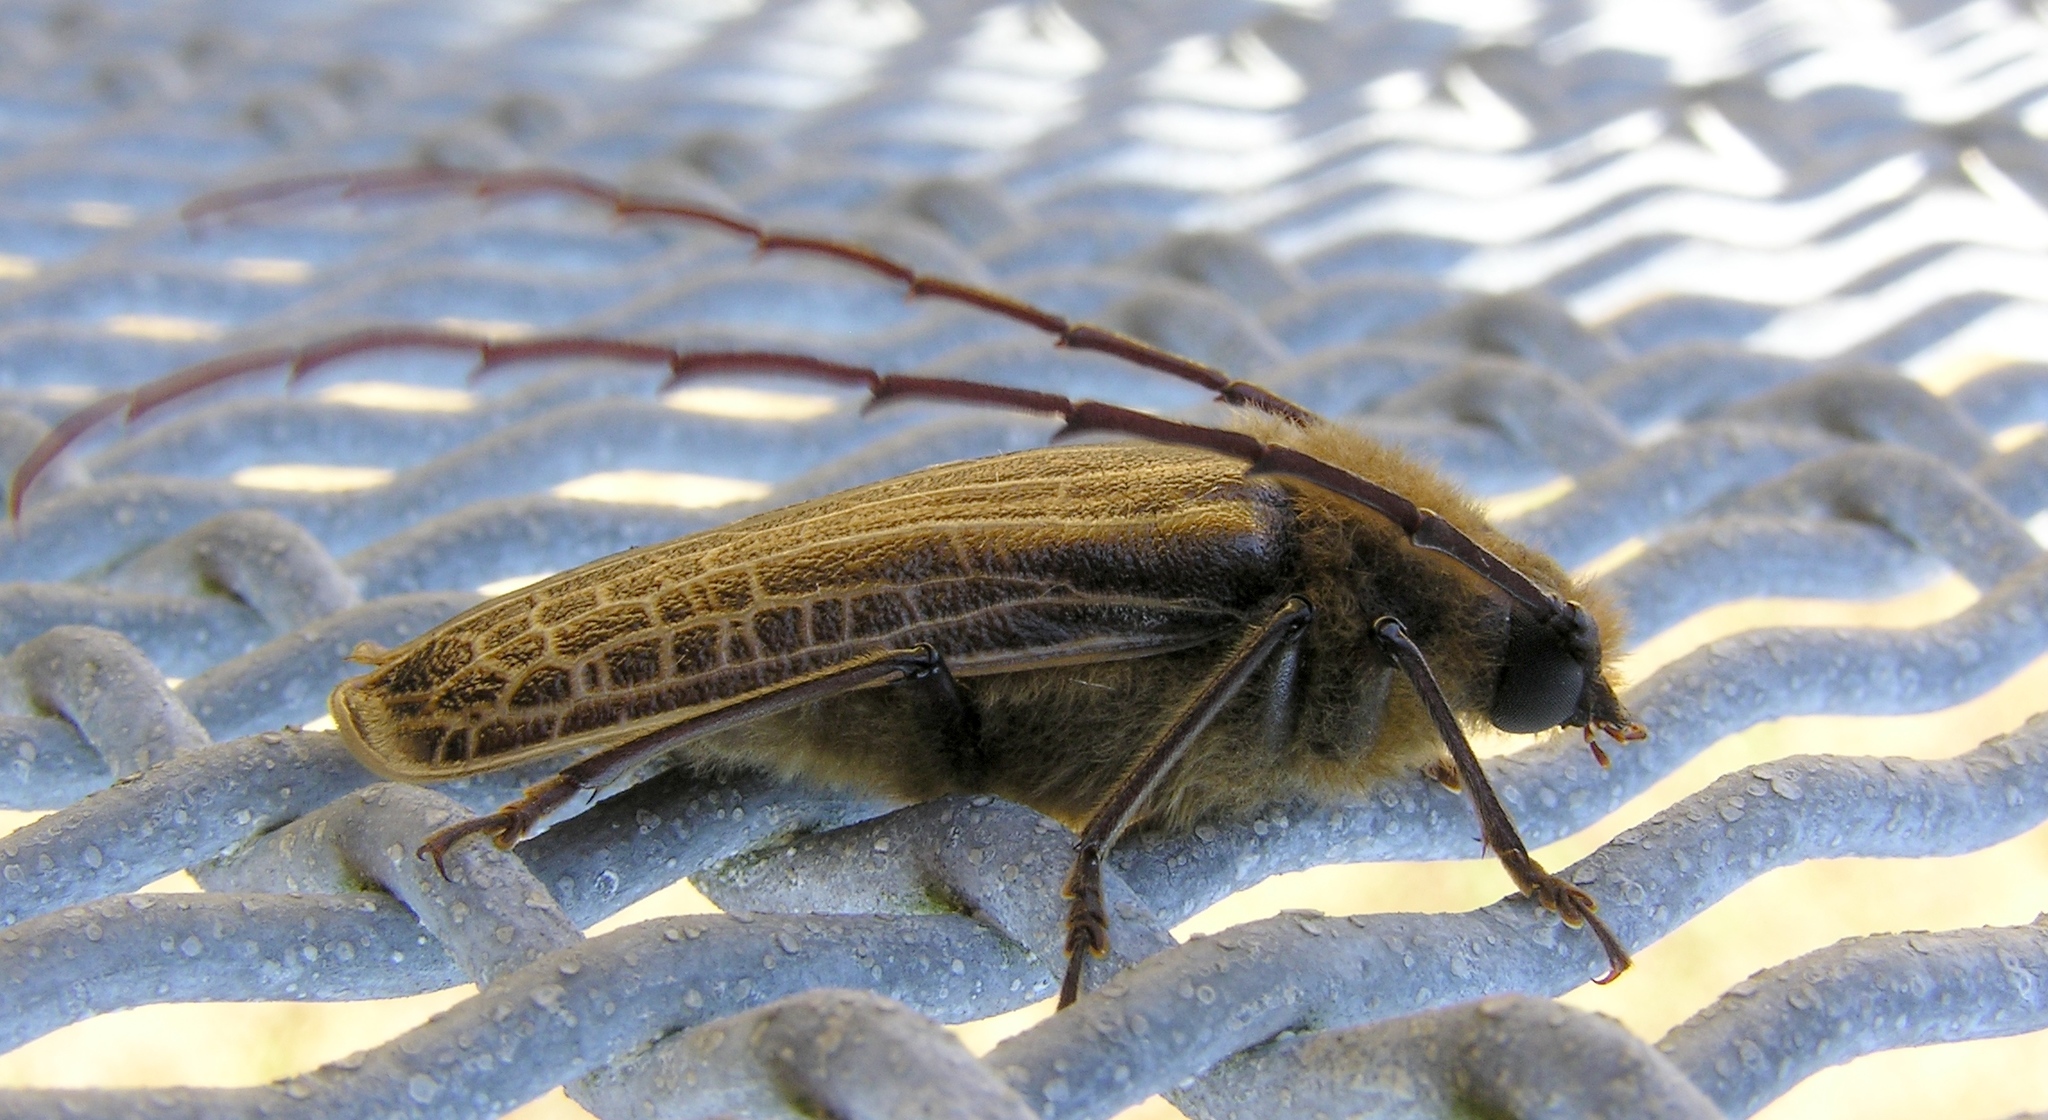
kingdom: Animalia
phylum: Arthropoda
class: Insecta
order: Coleoptera
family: Cerambycidae
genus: Prionoplus
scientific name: Prionoplus reticularis
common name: Huhu beetle
